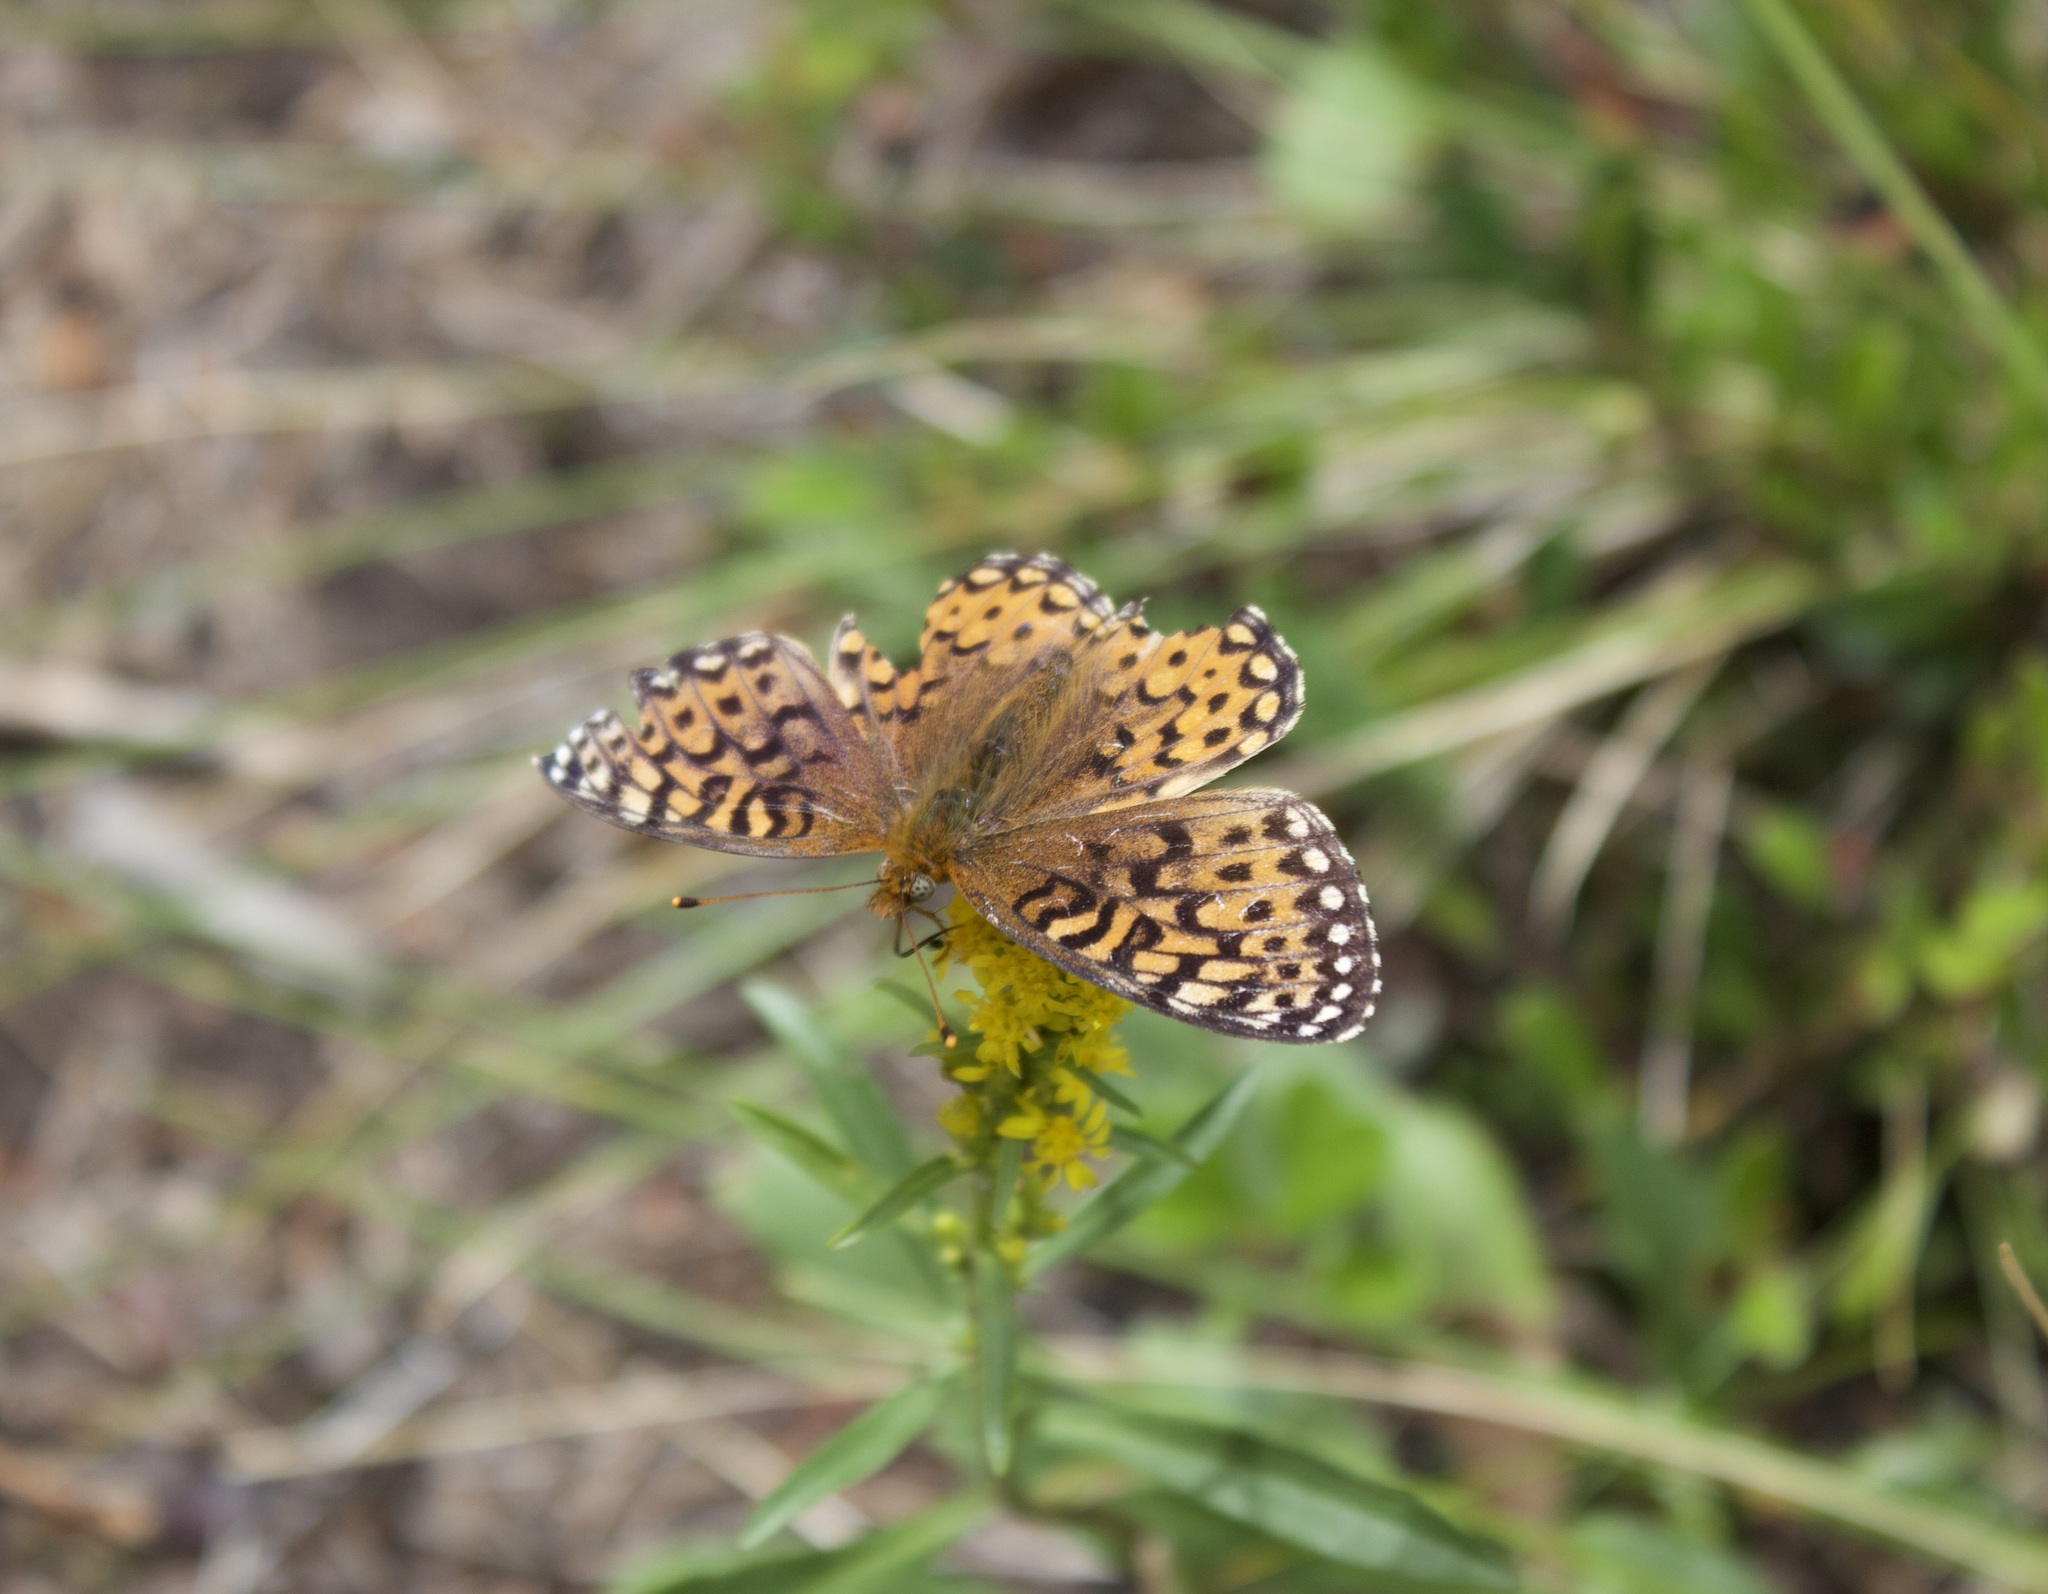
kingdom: Animalia
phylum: Arthropoda
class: Insecta
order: Lepidoptera
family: Nymphalidae
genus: Speyeria
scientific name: Speyeria mormonia
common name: Mormon fritillary
